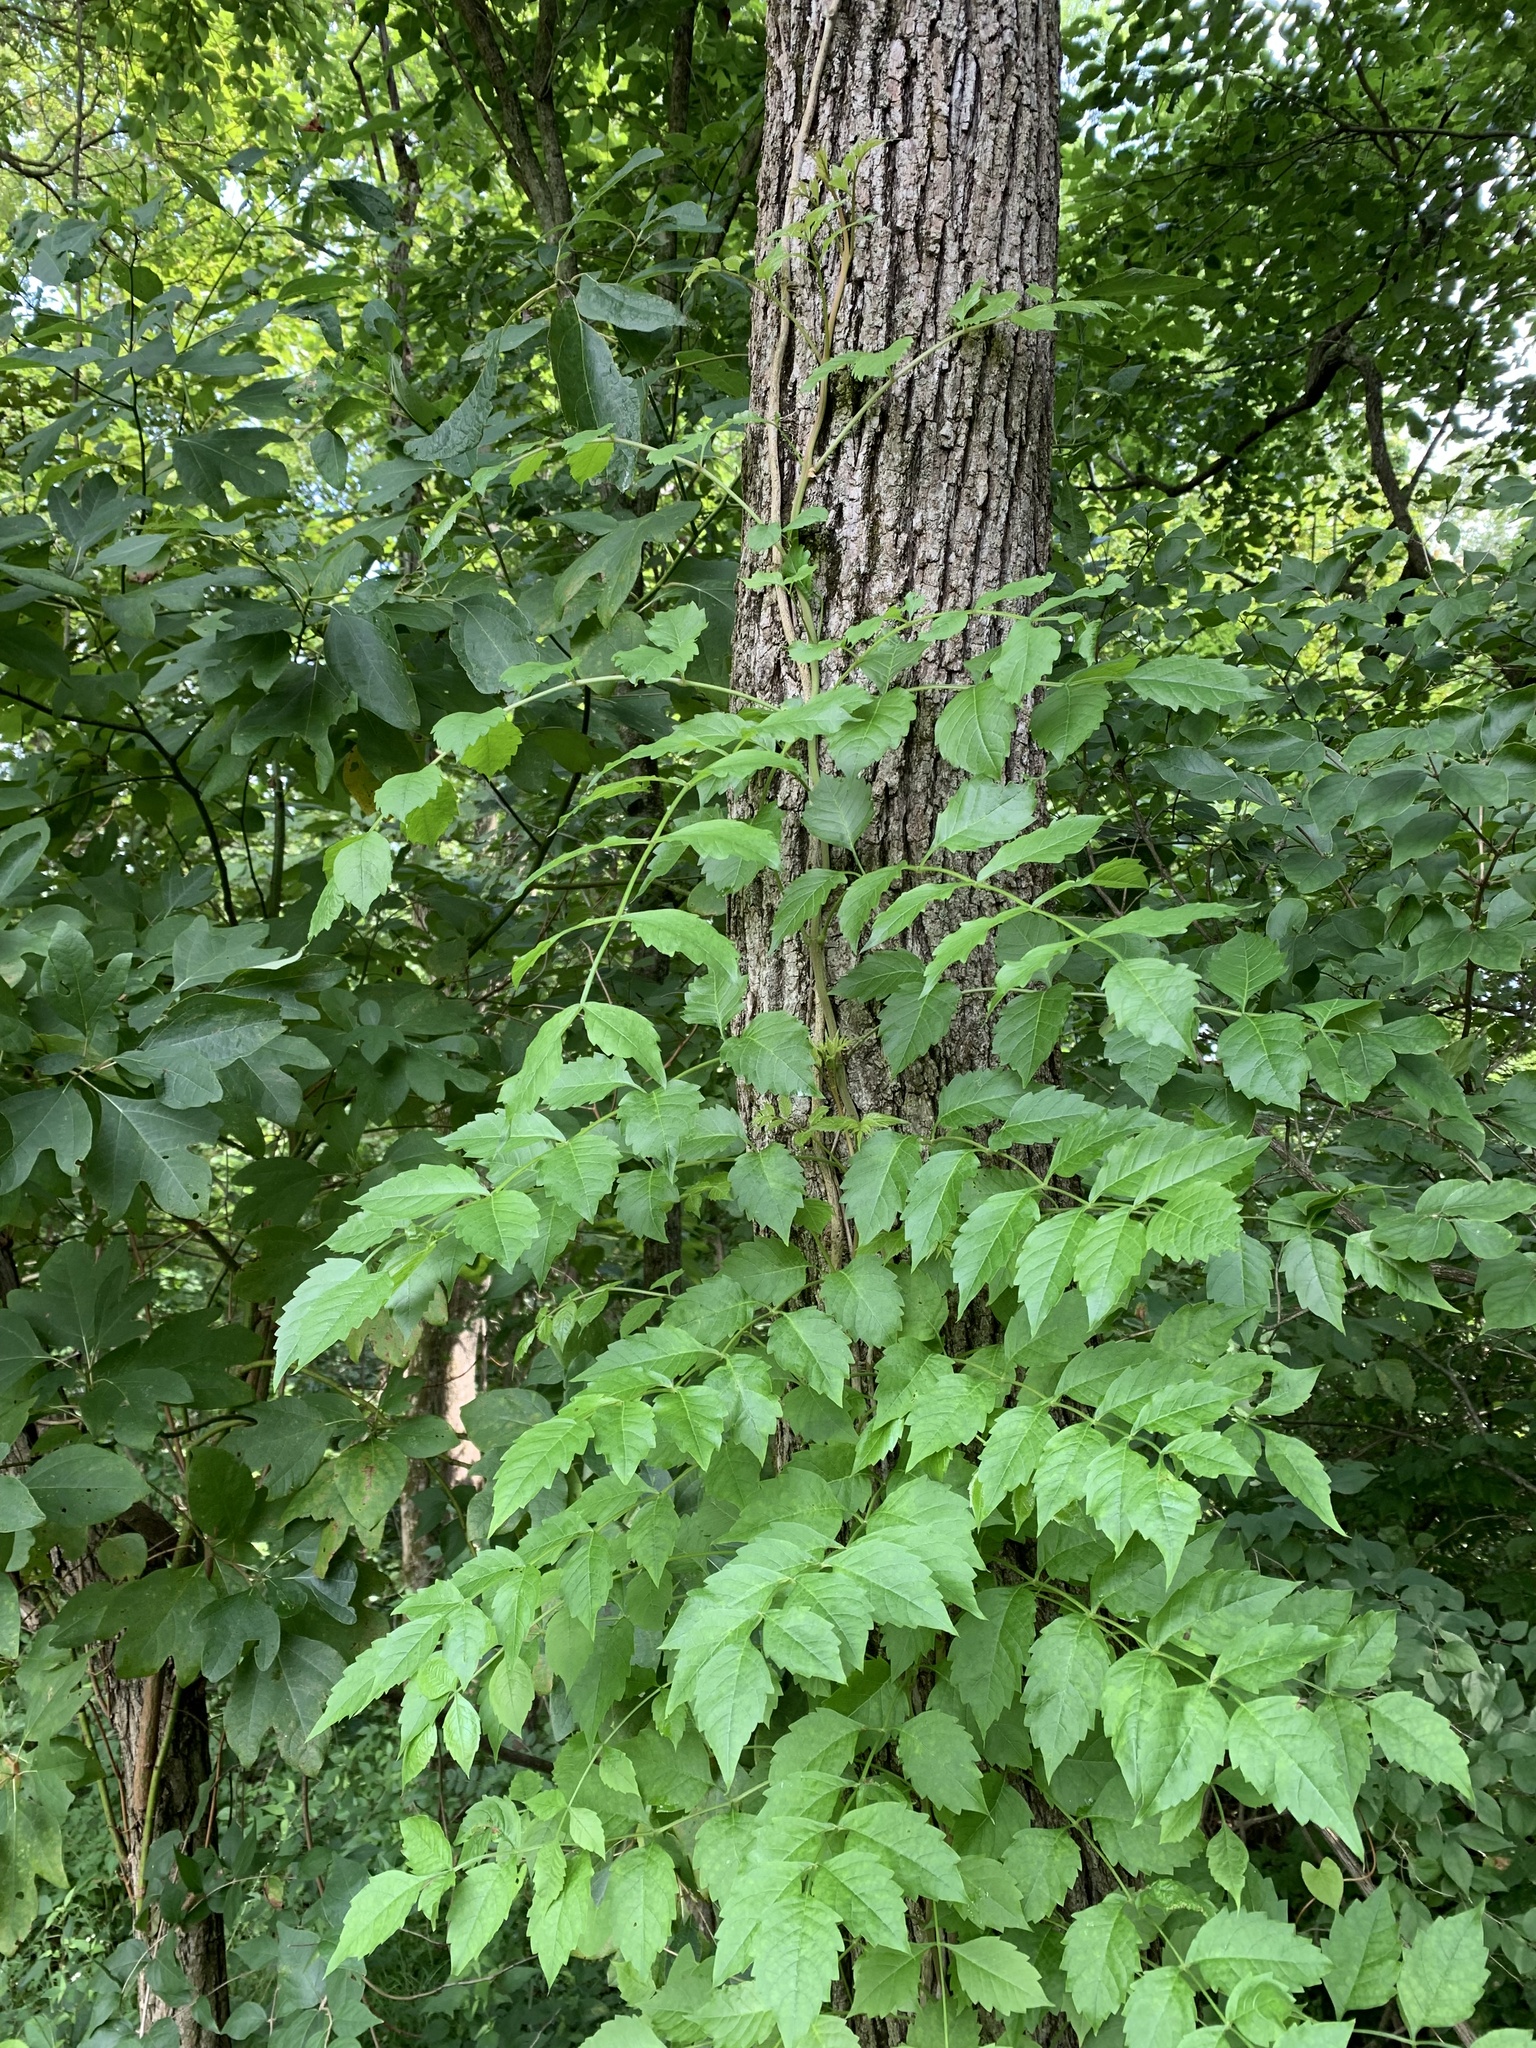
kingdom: Plantae
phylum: Tracheophyta
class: Magnoliopsida
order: Lamiales
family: Bignoniaceae
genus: Campsis
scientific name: Campsis radicans
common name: Trumpet-creeper
